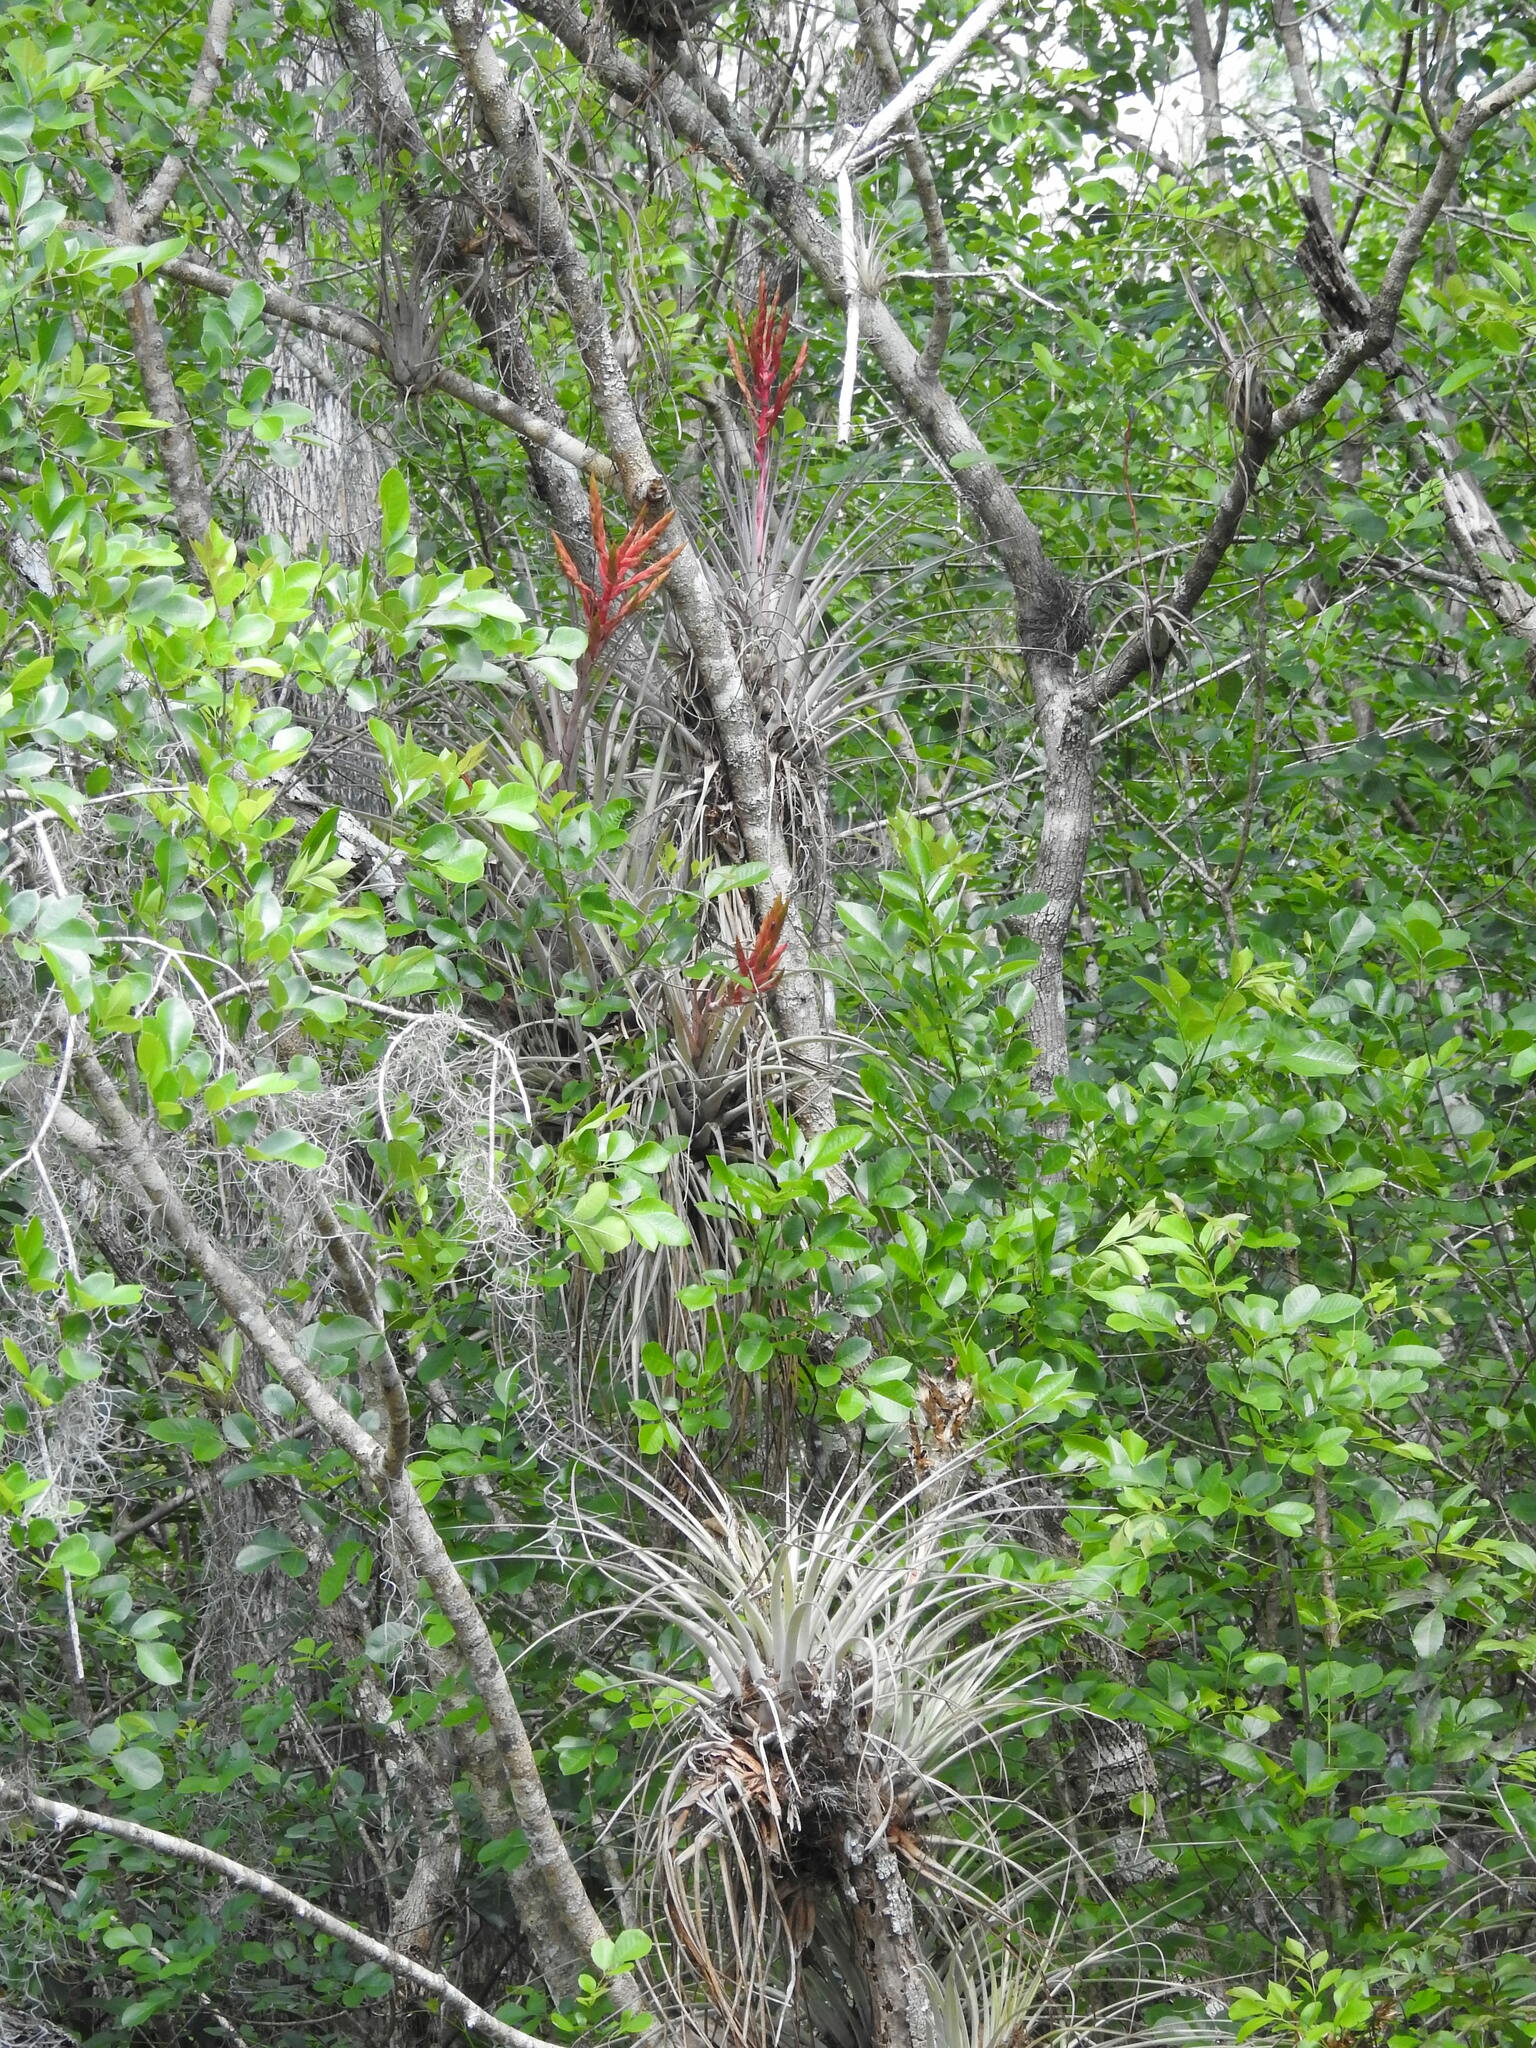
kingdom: Plantae
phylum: Tracheophyta
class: Liliopsida
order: Poales
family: Bromeliaceae
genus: Tillandsia
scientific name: Tillandsia fasciculata
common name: Giant airplant
